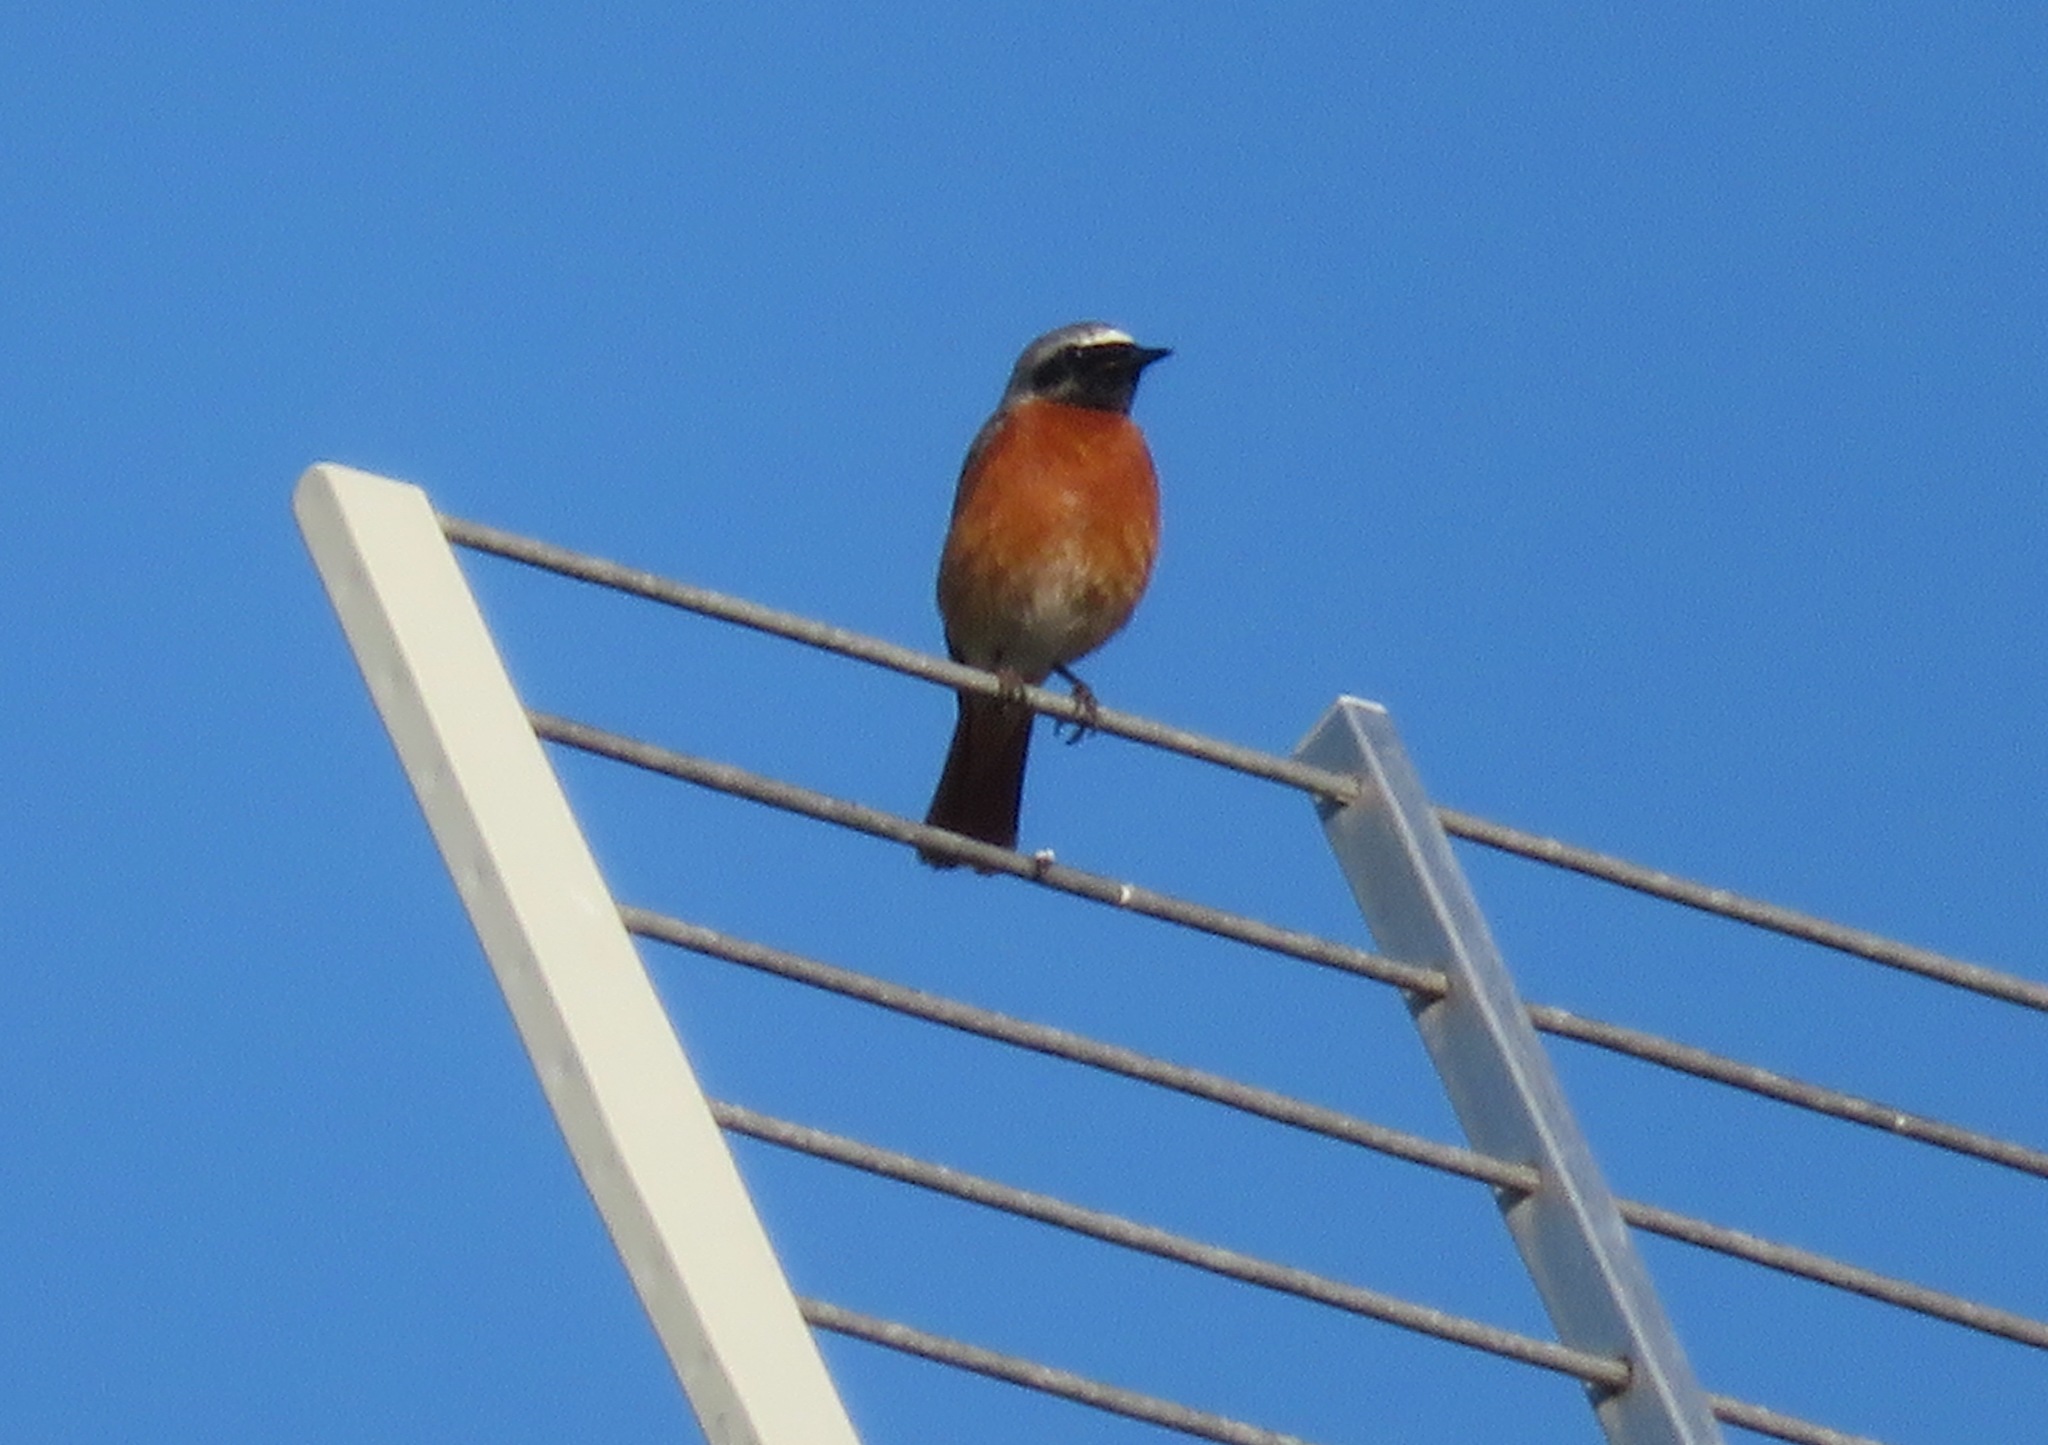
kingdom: Animalia
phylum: Chordata
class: Aves
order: Passeriformes
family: Muscicapidae
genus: Phoenicurus
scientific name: Phoenicurus phoenicurus
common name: Common redstart
